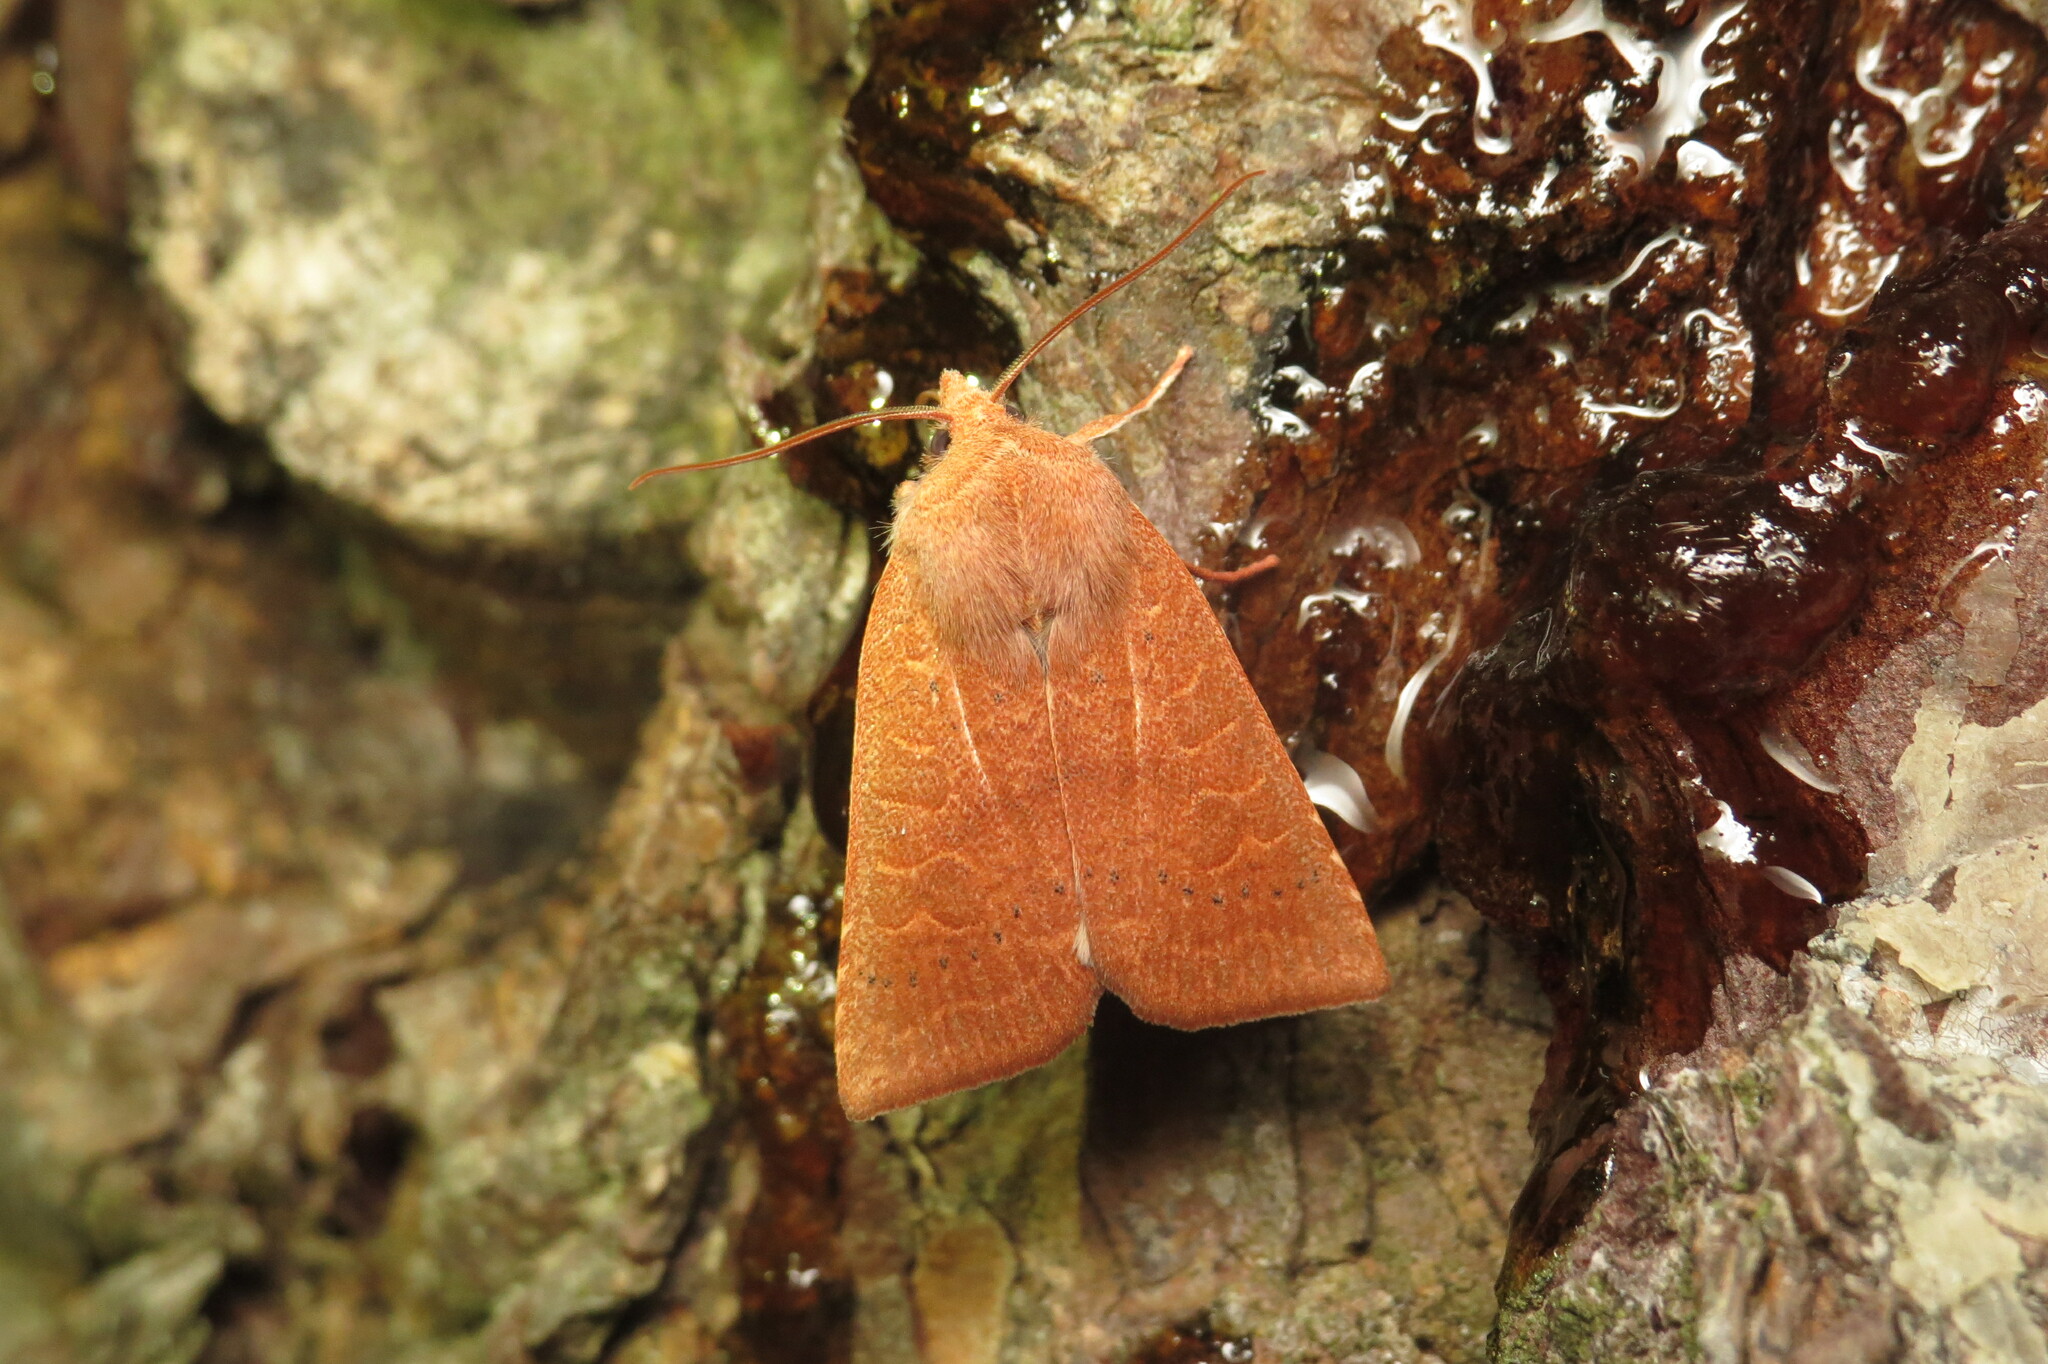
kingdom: Animalia
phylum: Arthropoda
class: Insecta
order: Lepidoptera
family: Noctuidae
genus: Xystopeplus
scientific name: Xystopeplus rufago
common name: Red-winged sallow
